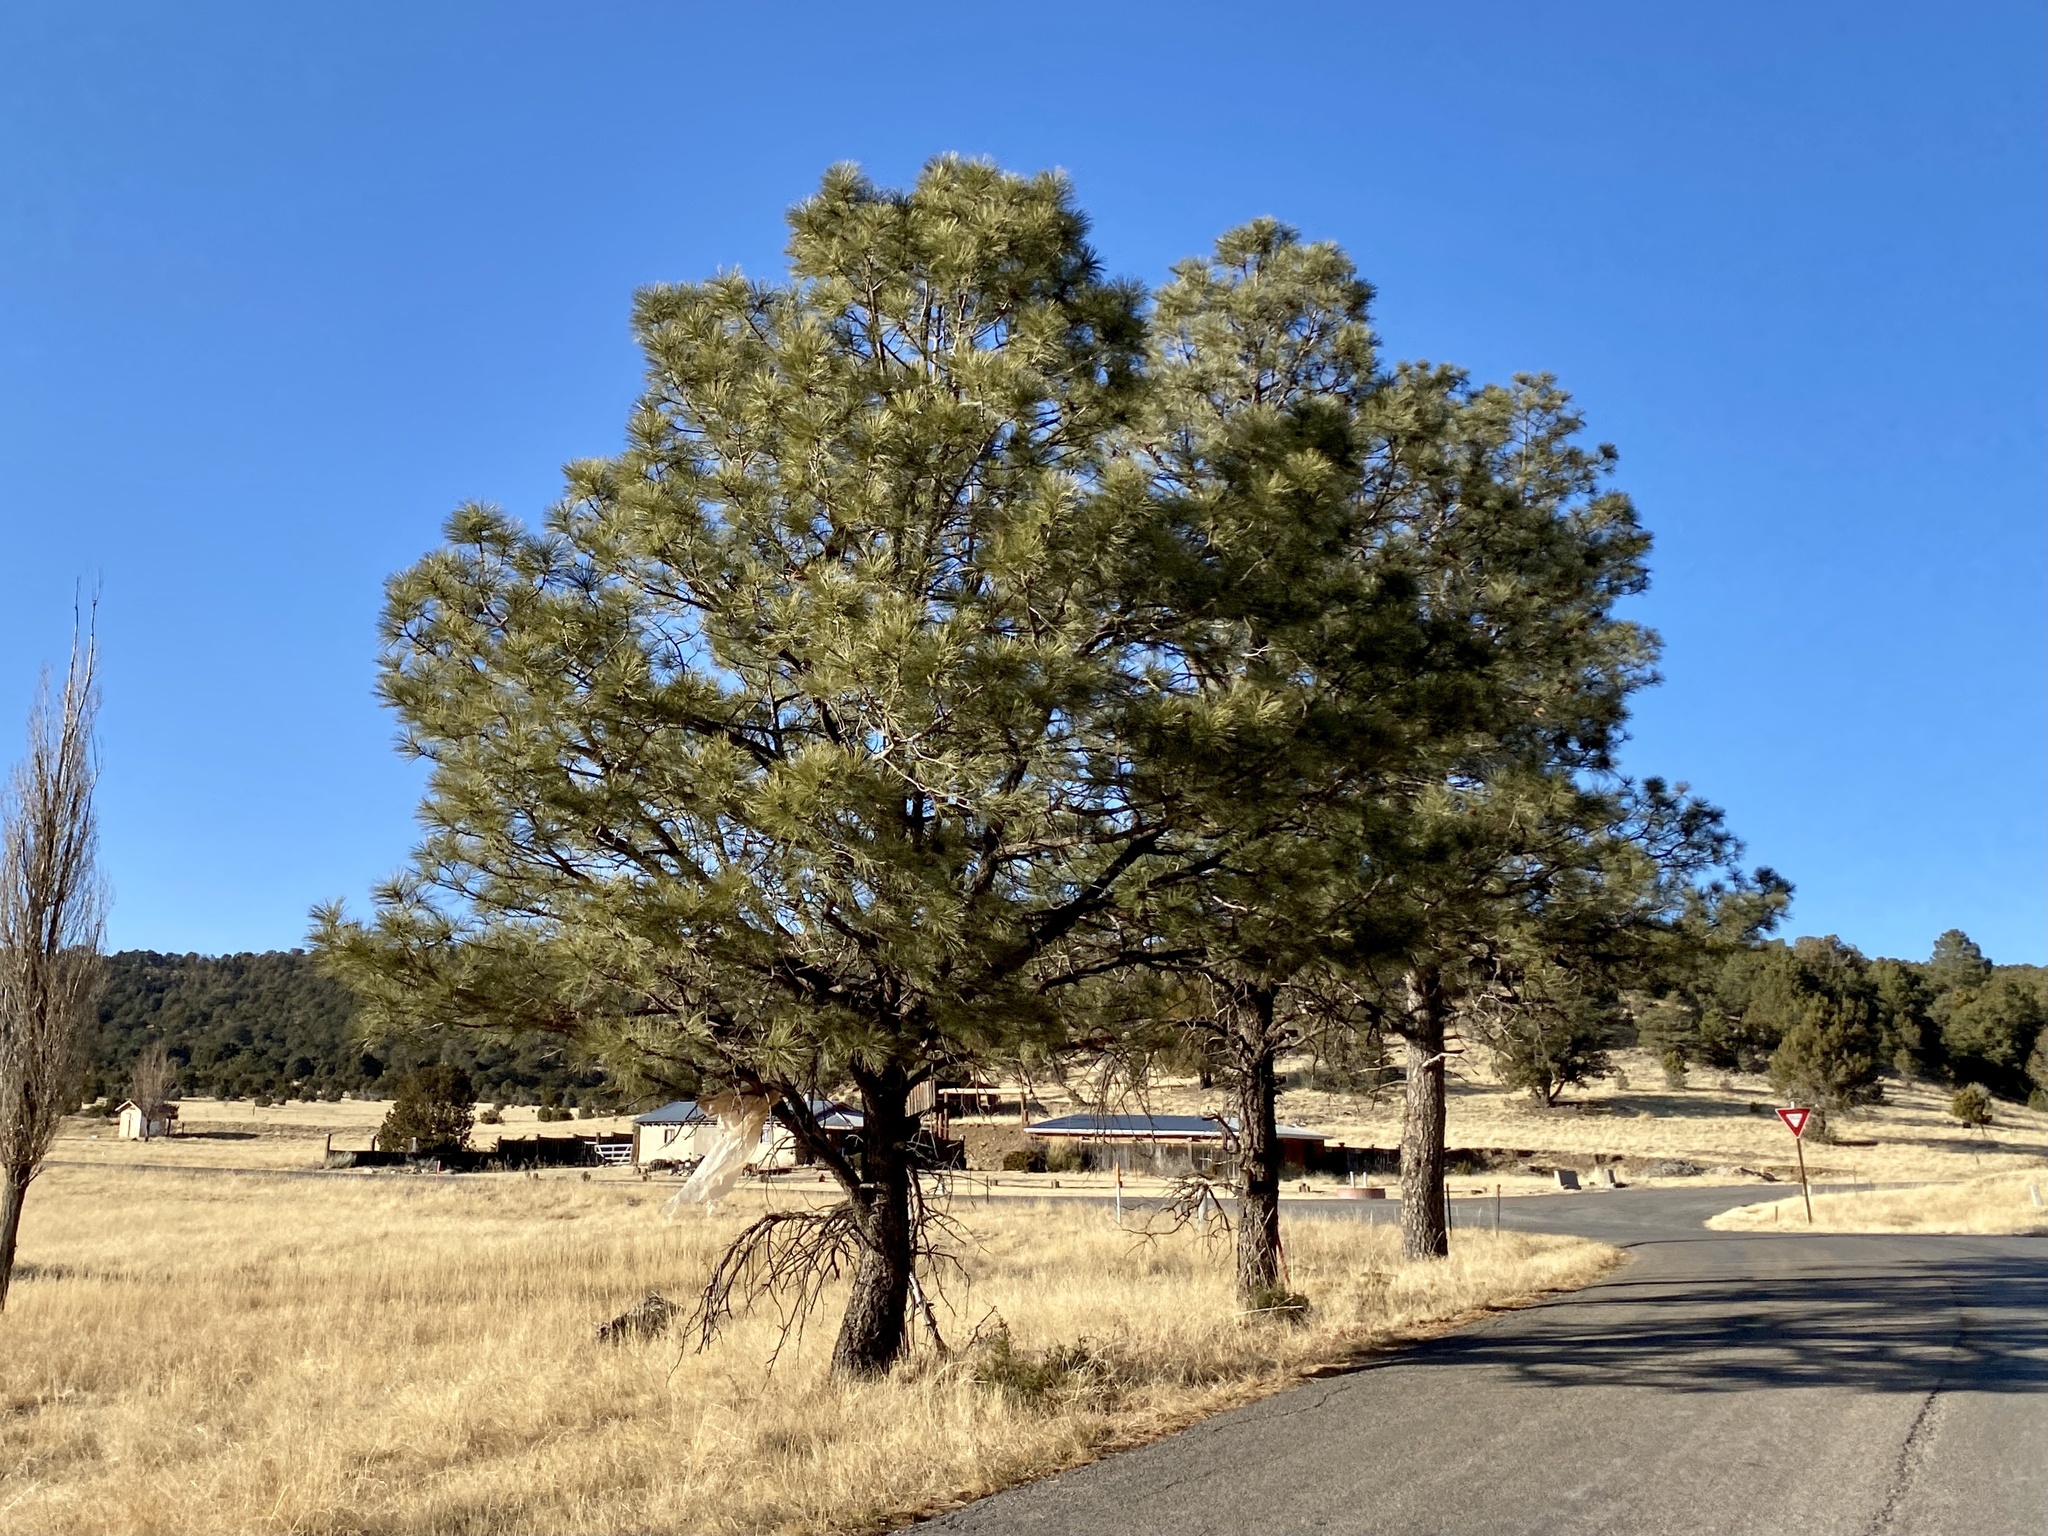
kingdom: Plantae
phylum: Tracheophyta
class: Pinopsida
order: Pinales
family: Pinaceae
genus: Pinus
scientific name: Pinus ponderosa
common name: Western yellow-pine
